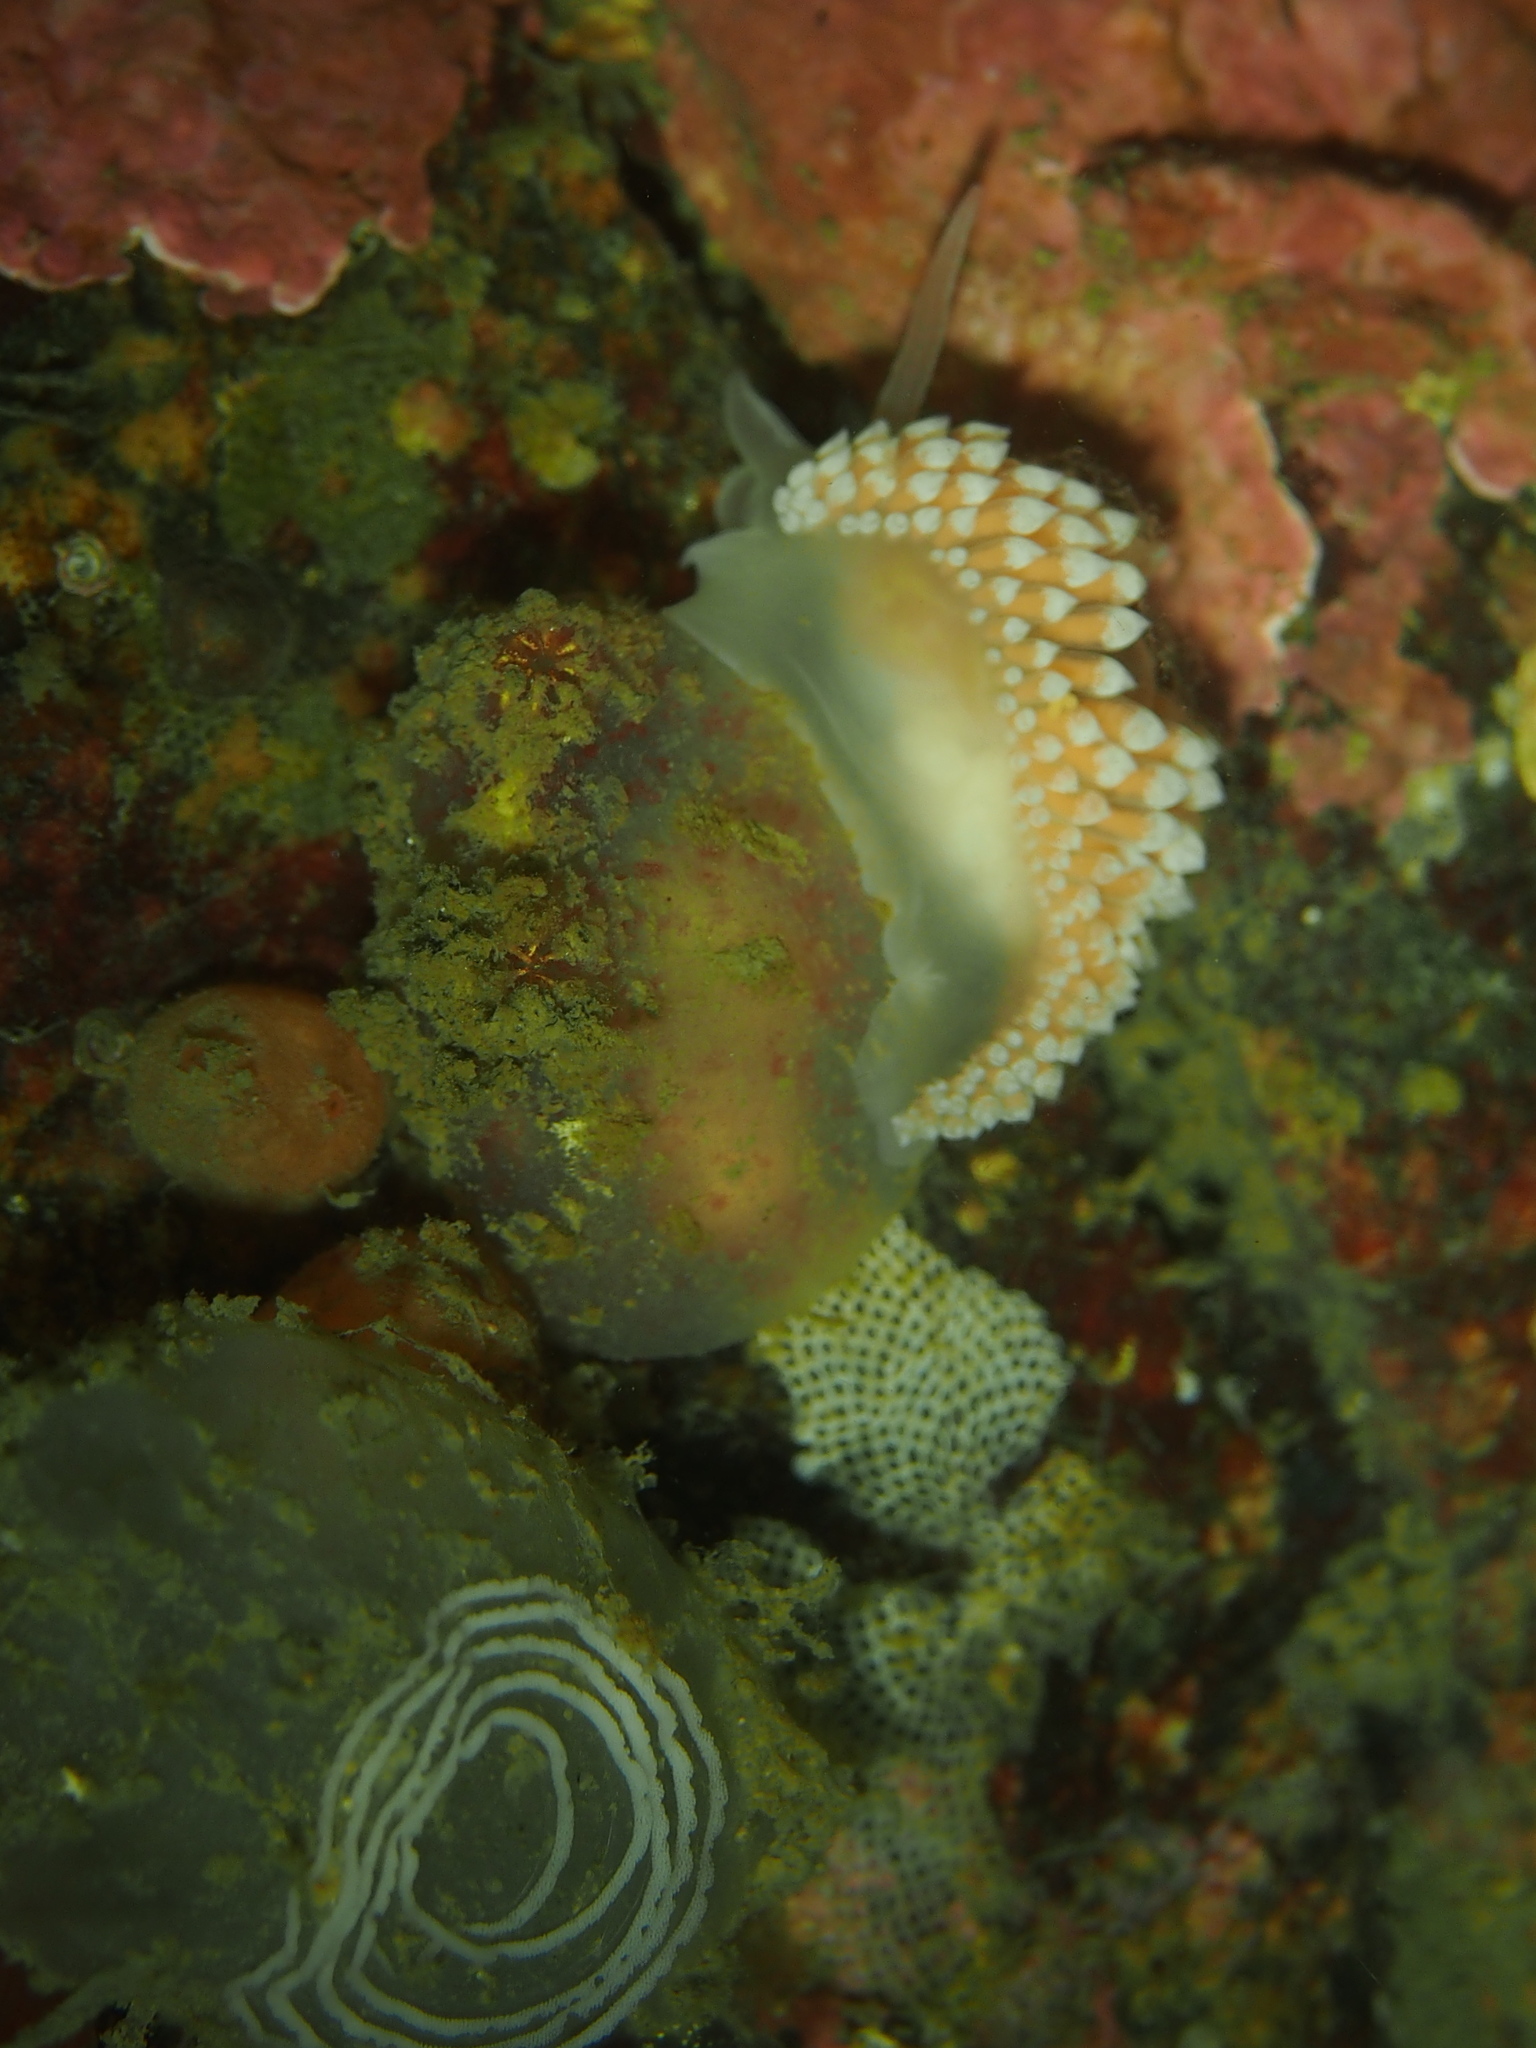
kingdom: Animalia
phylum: Mollusca
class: Gastropoda
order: Nudibranchia
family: Coryphellidae
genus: Coryphella
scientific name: Coryphella verrucosa
